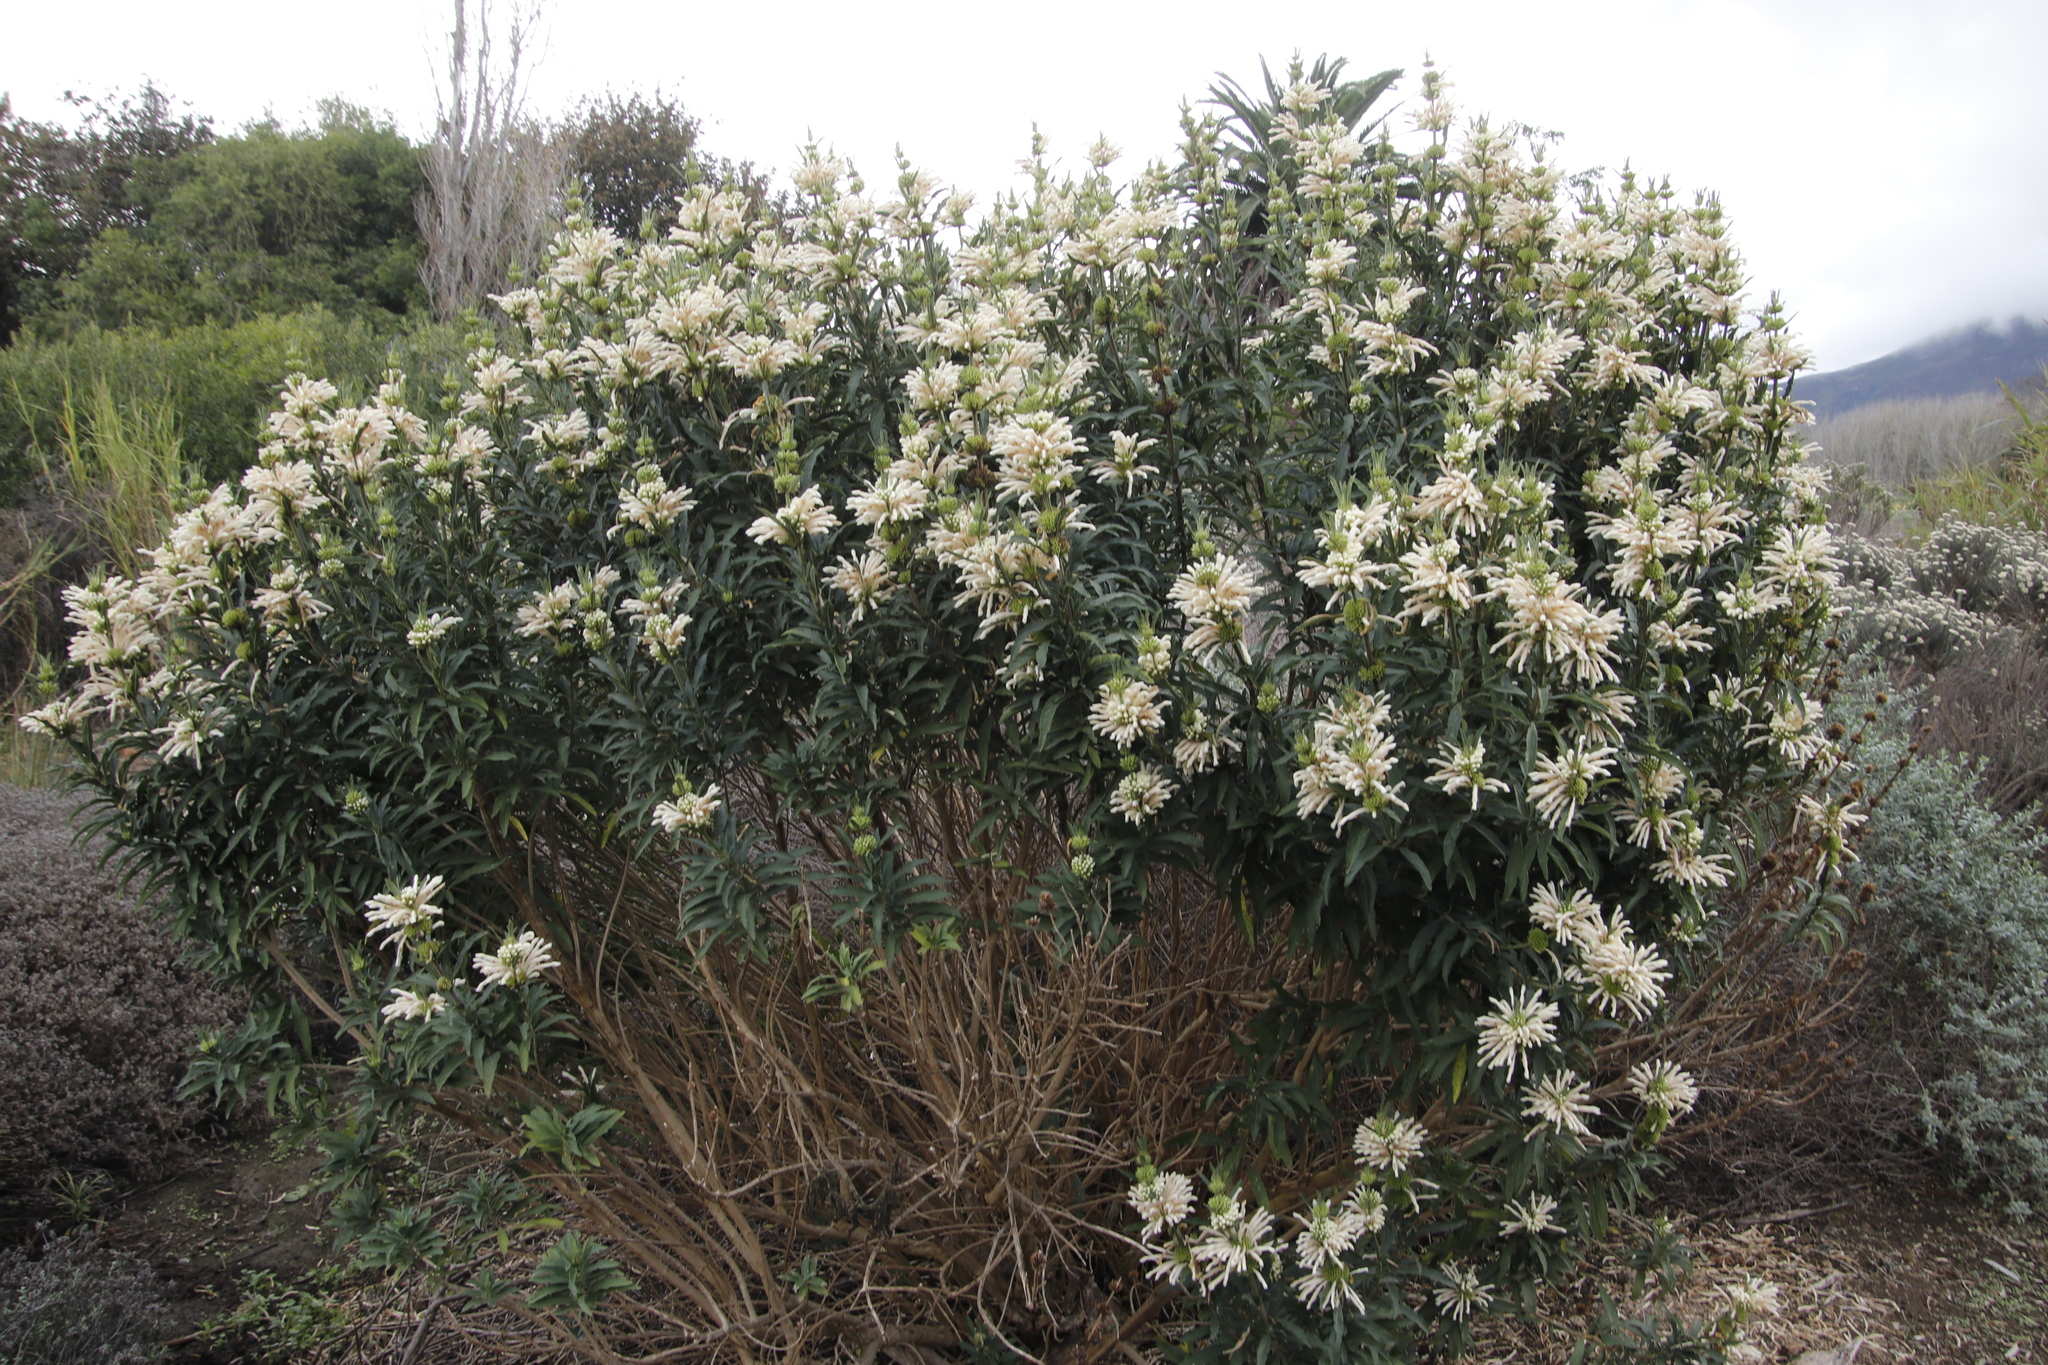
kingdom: Plantae
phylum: Tracheophyta
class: Magnoliopsida
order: Lamiales
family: Lamiaceae
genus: Leonotis
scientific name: Leonotis leonurus
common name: Lion's ear
